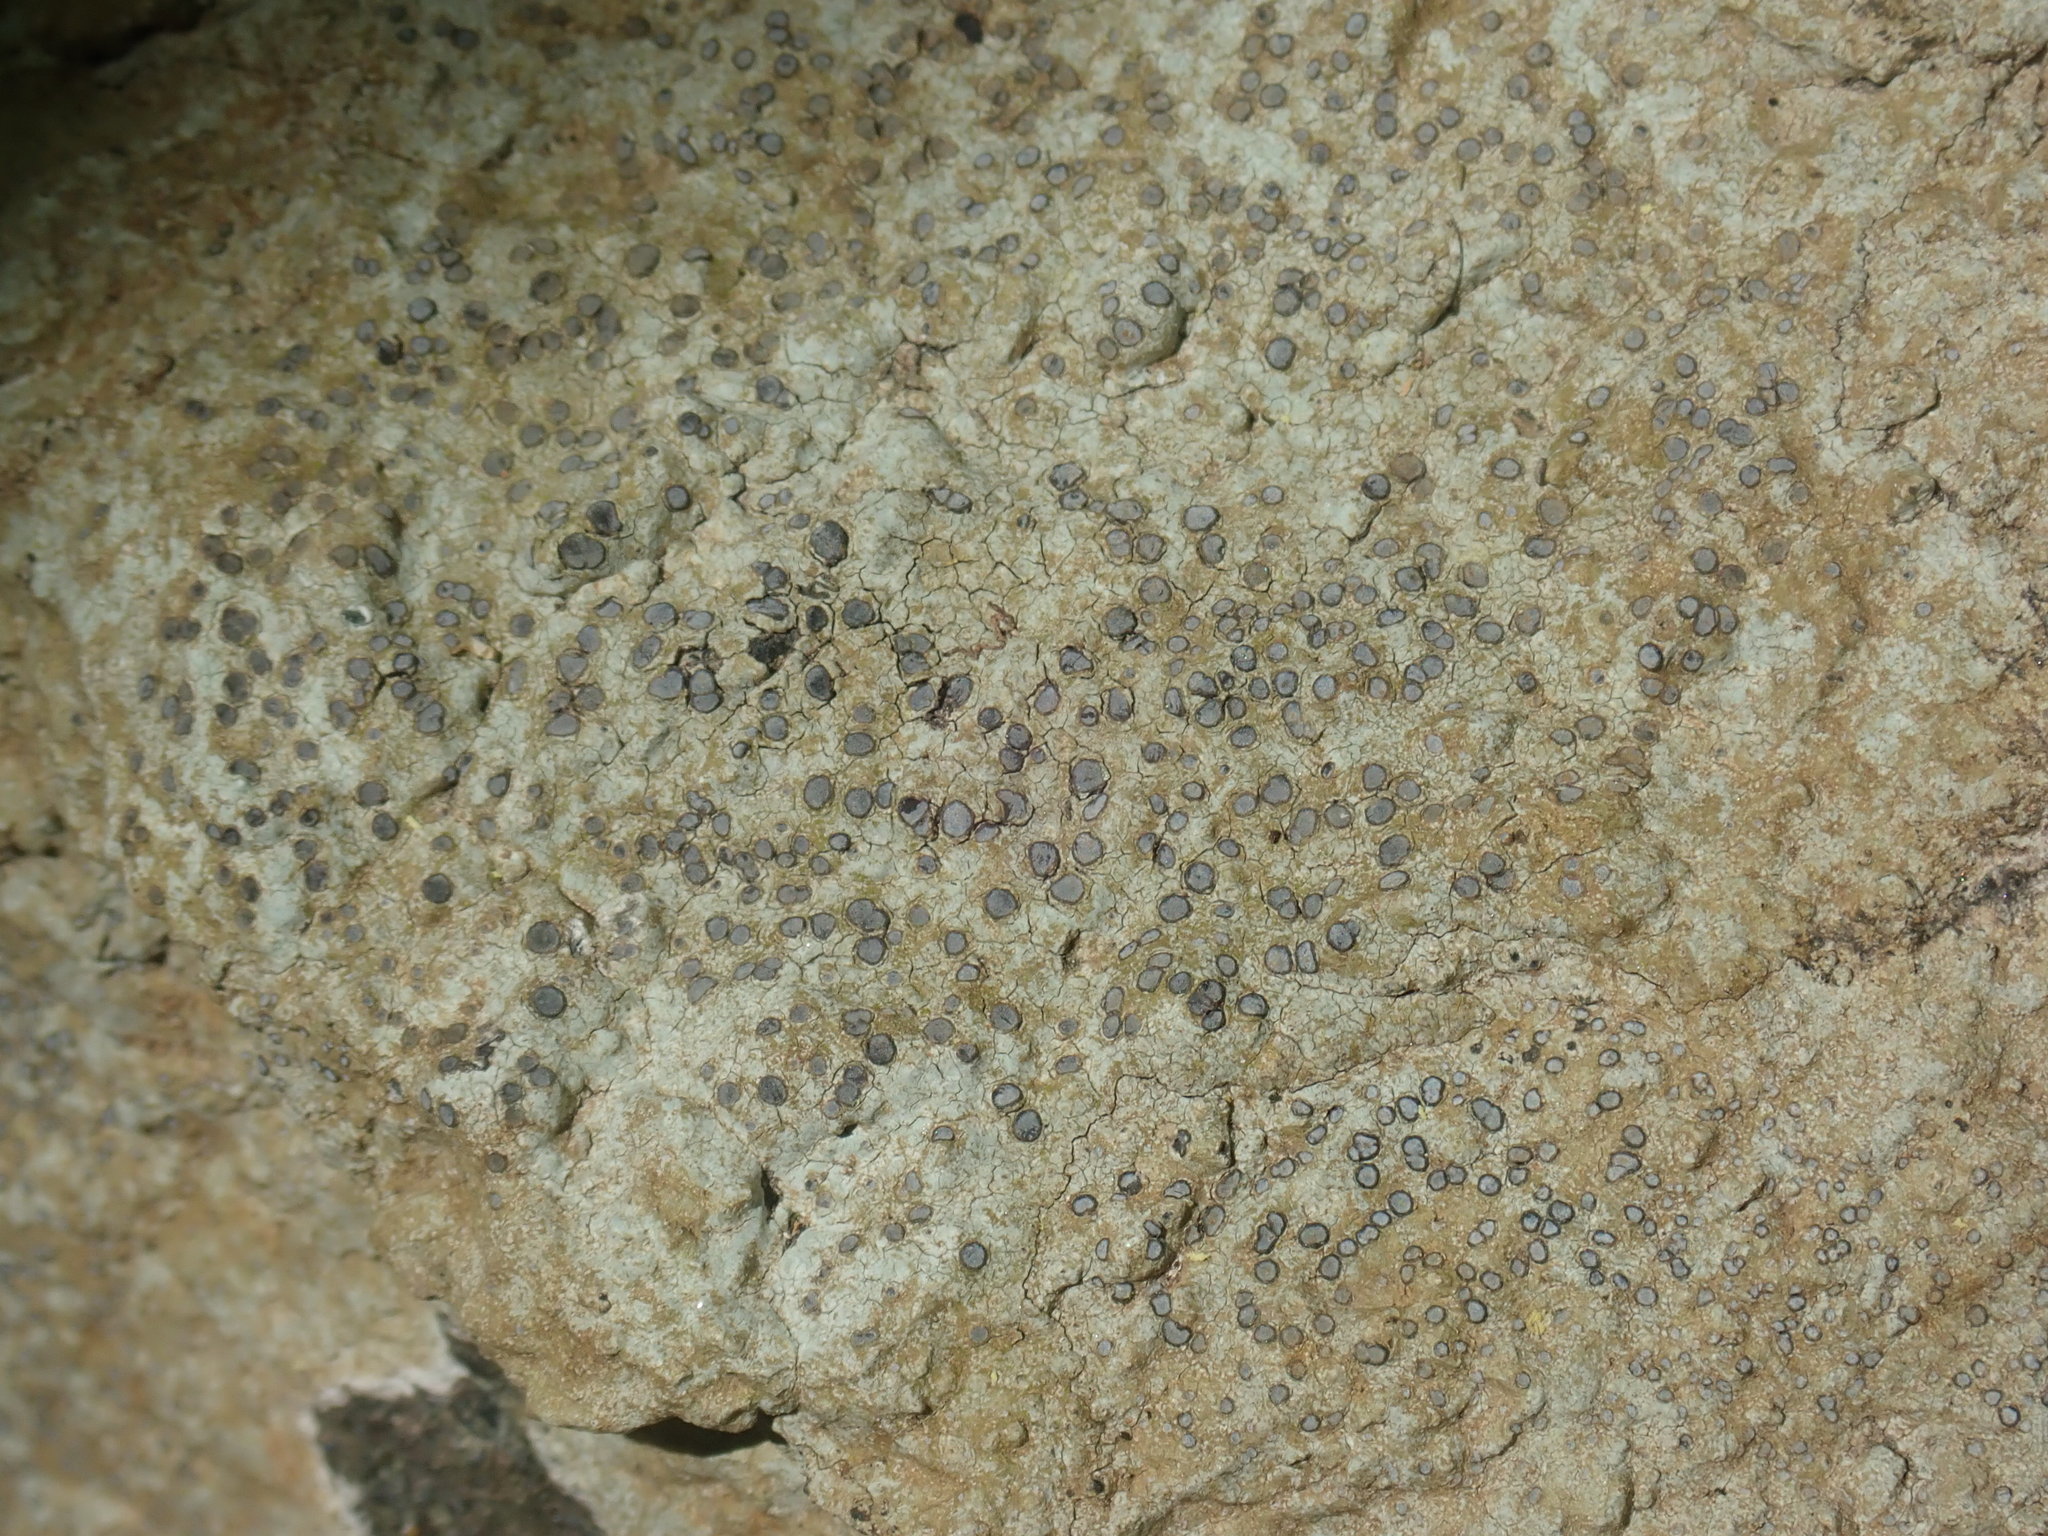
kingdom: Fungi
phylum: Ascomycota
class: Lecanoromycetes
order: Lecideales
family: Lecideaceae
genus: Porpidia
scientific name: Porpidia albocaerulescens
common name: Smokey-eyed boulder lichen
